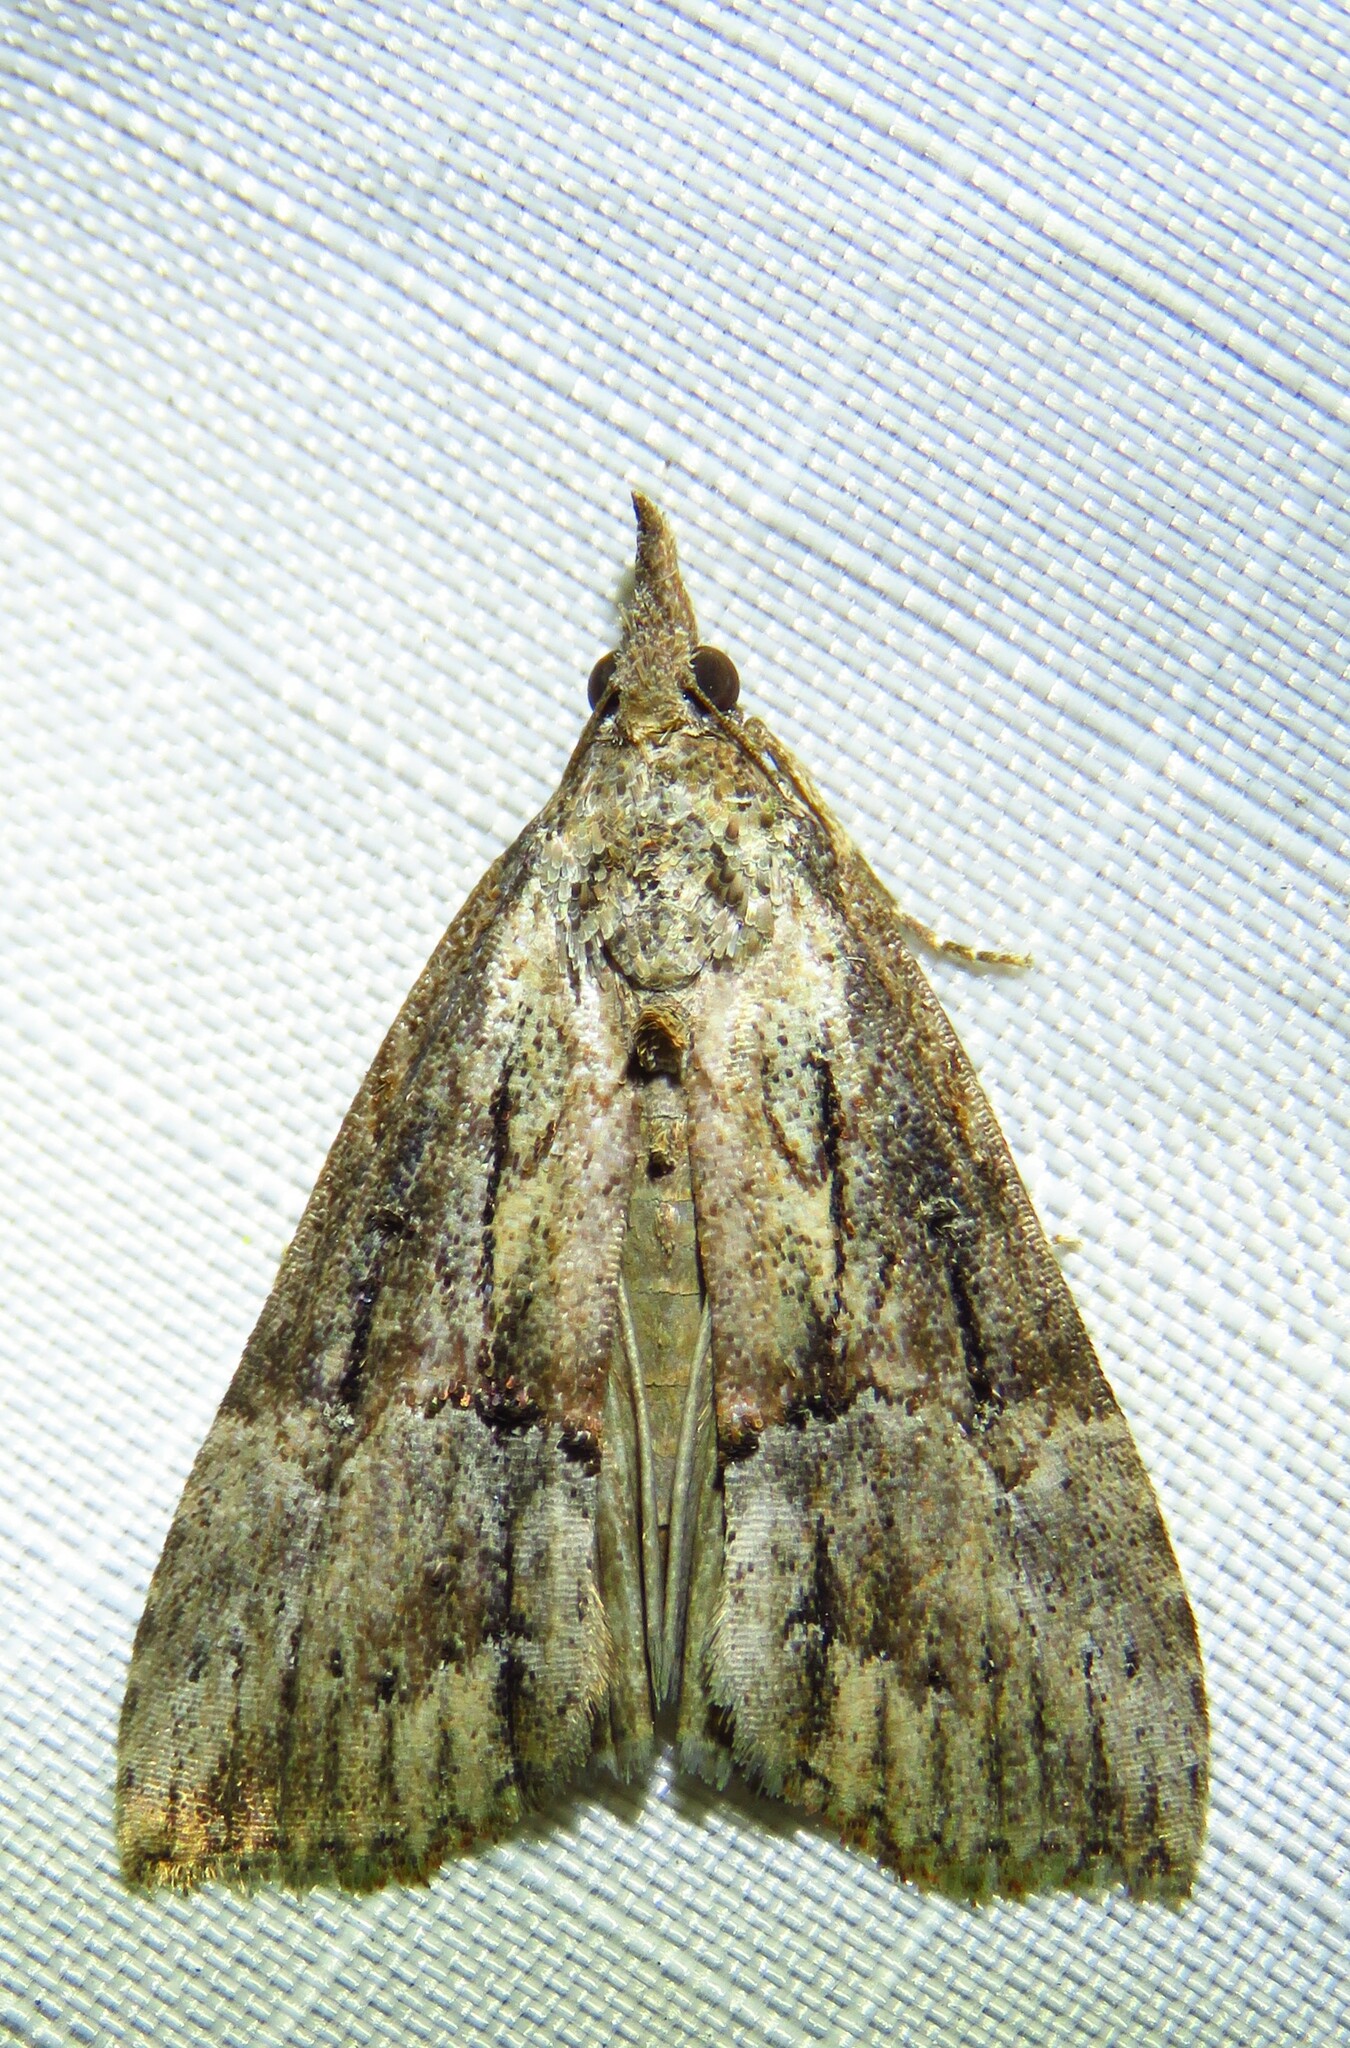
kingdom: Animalia
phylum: Arthropoda
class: Insecta
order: Lepidoptera
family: Erebidae
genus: Hypena
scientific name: Hypena scabra
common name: Green cloverworm
